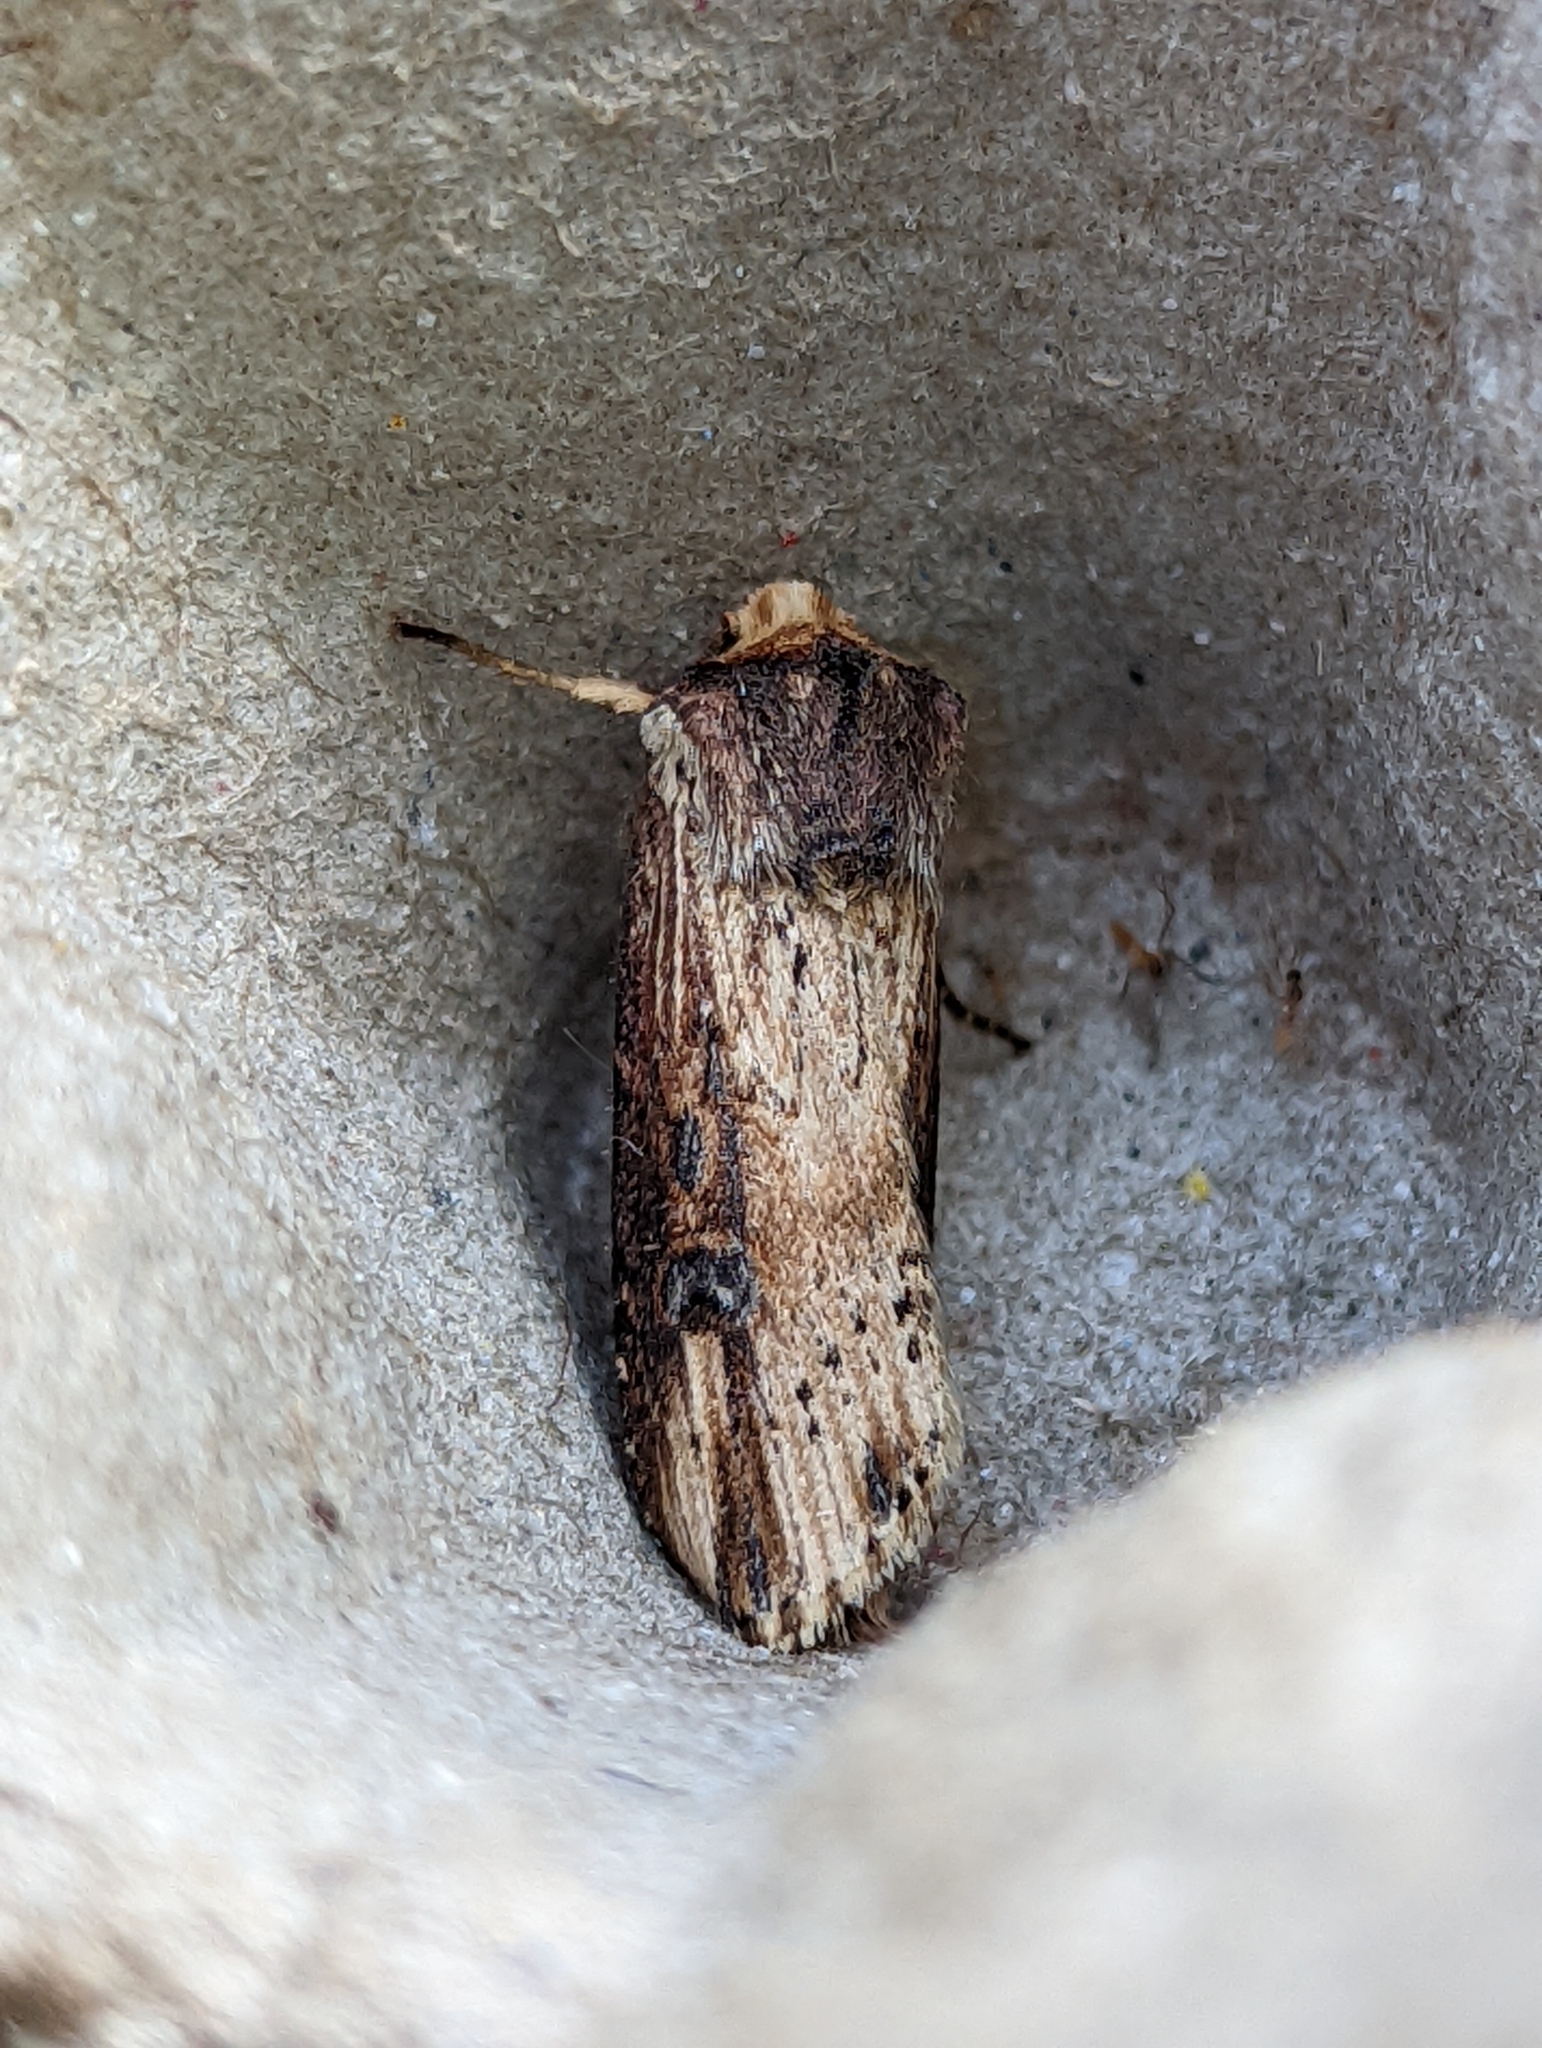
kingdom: Animalia
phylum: Arthropoda
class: Insecta
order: Lepidoptera
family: Noctuidae
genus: Axylia
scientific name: Axylia putris
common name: Flame
